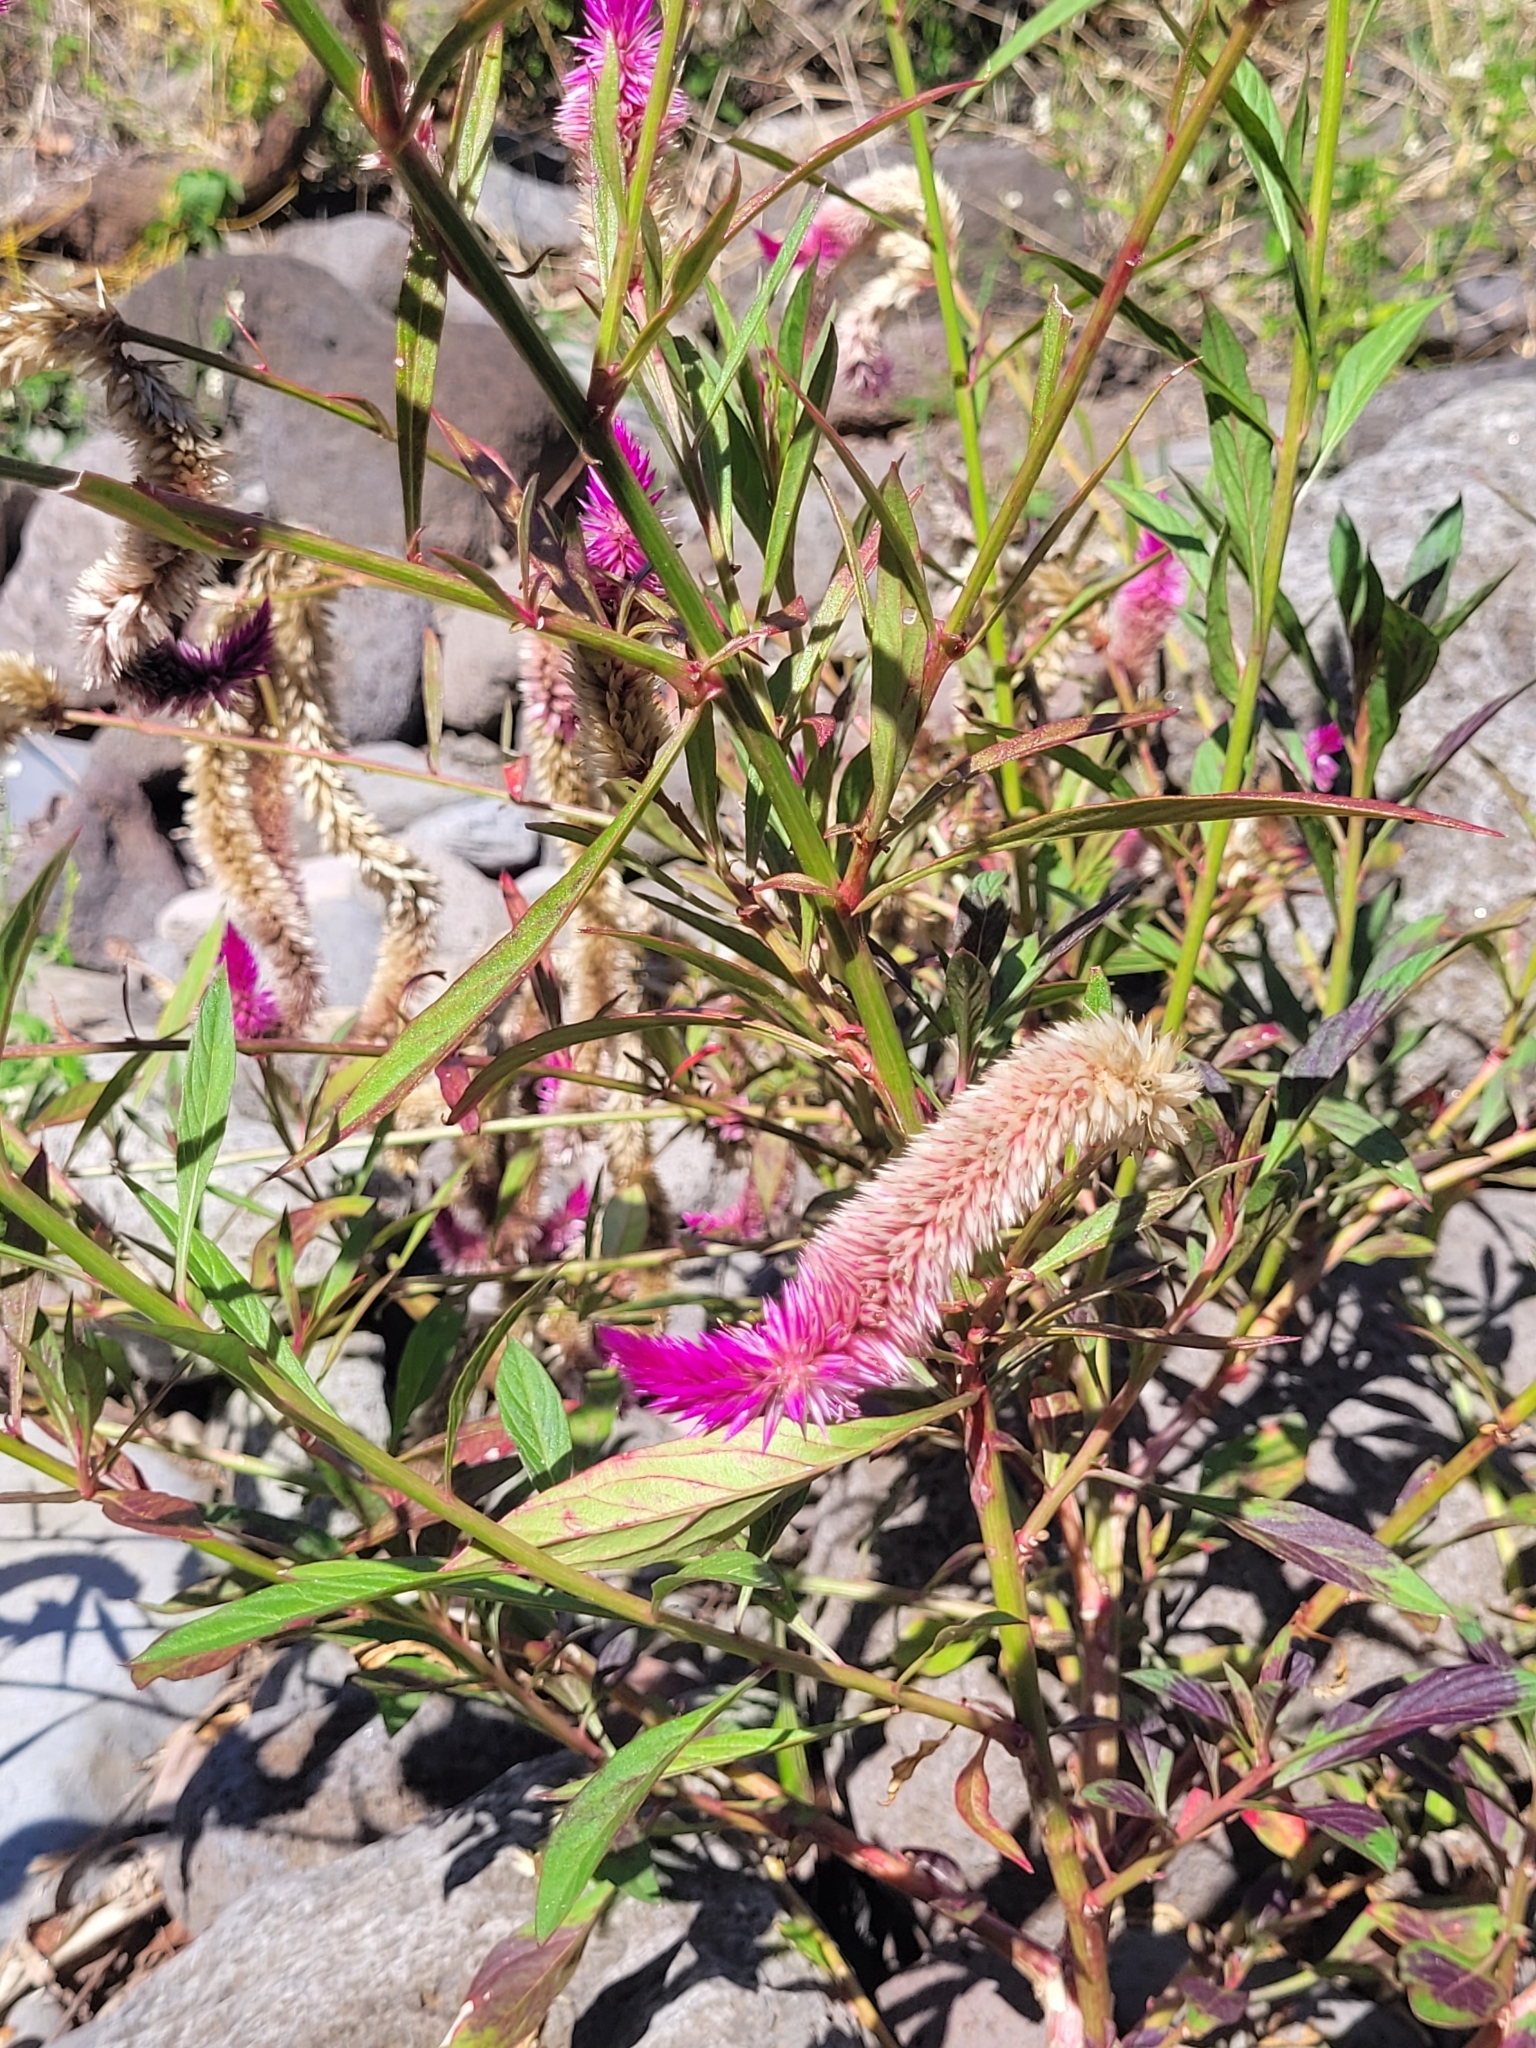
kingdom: Plantae
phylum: Tracheophyta
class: Magnoliopsida
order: Caryophyllales
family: Amaranthaceae
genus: Celosia
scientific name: Celosia argentea
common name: Feather cockscomb
